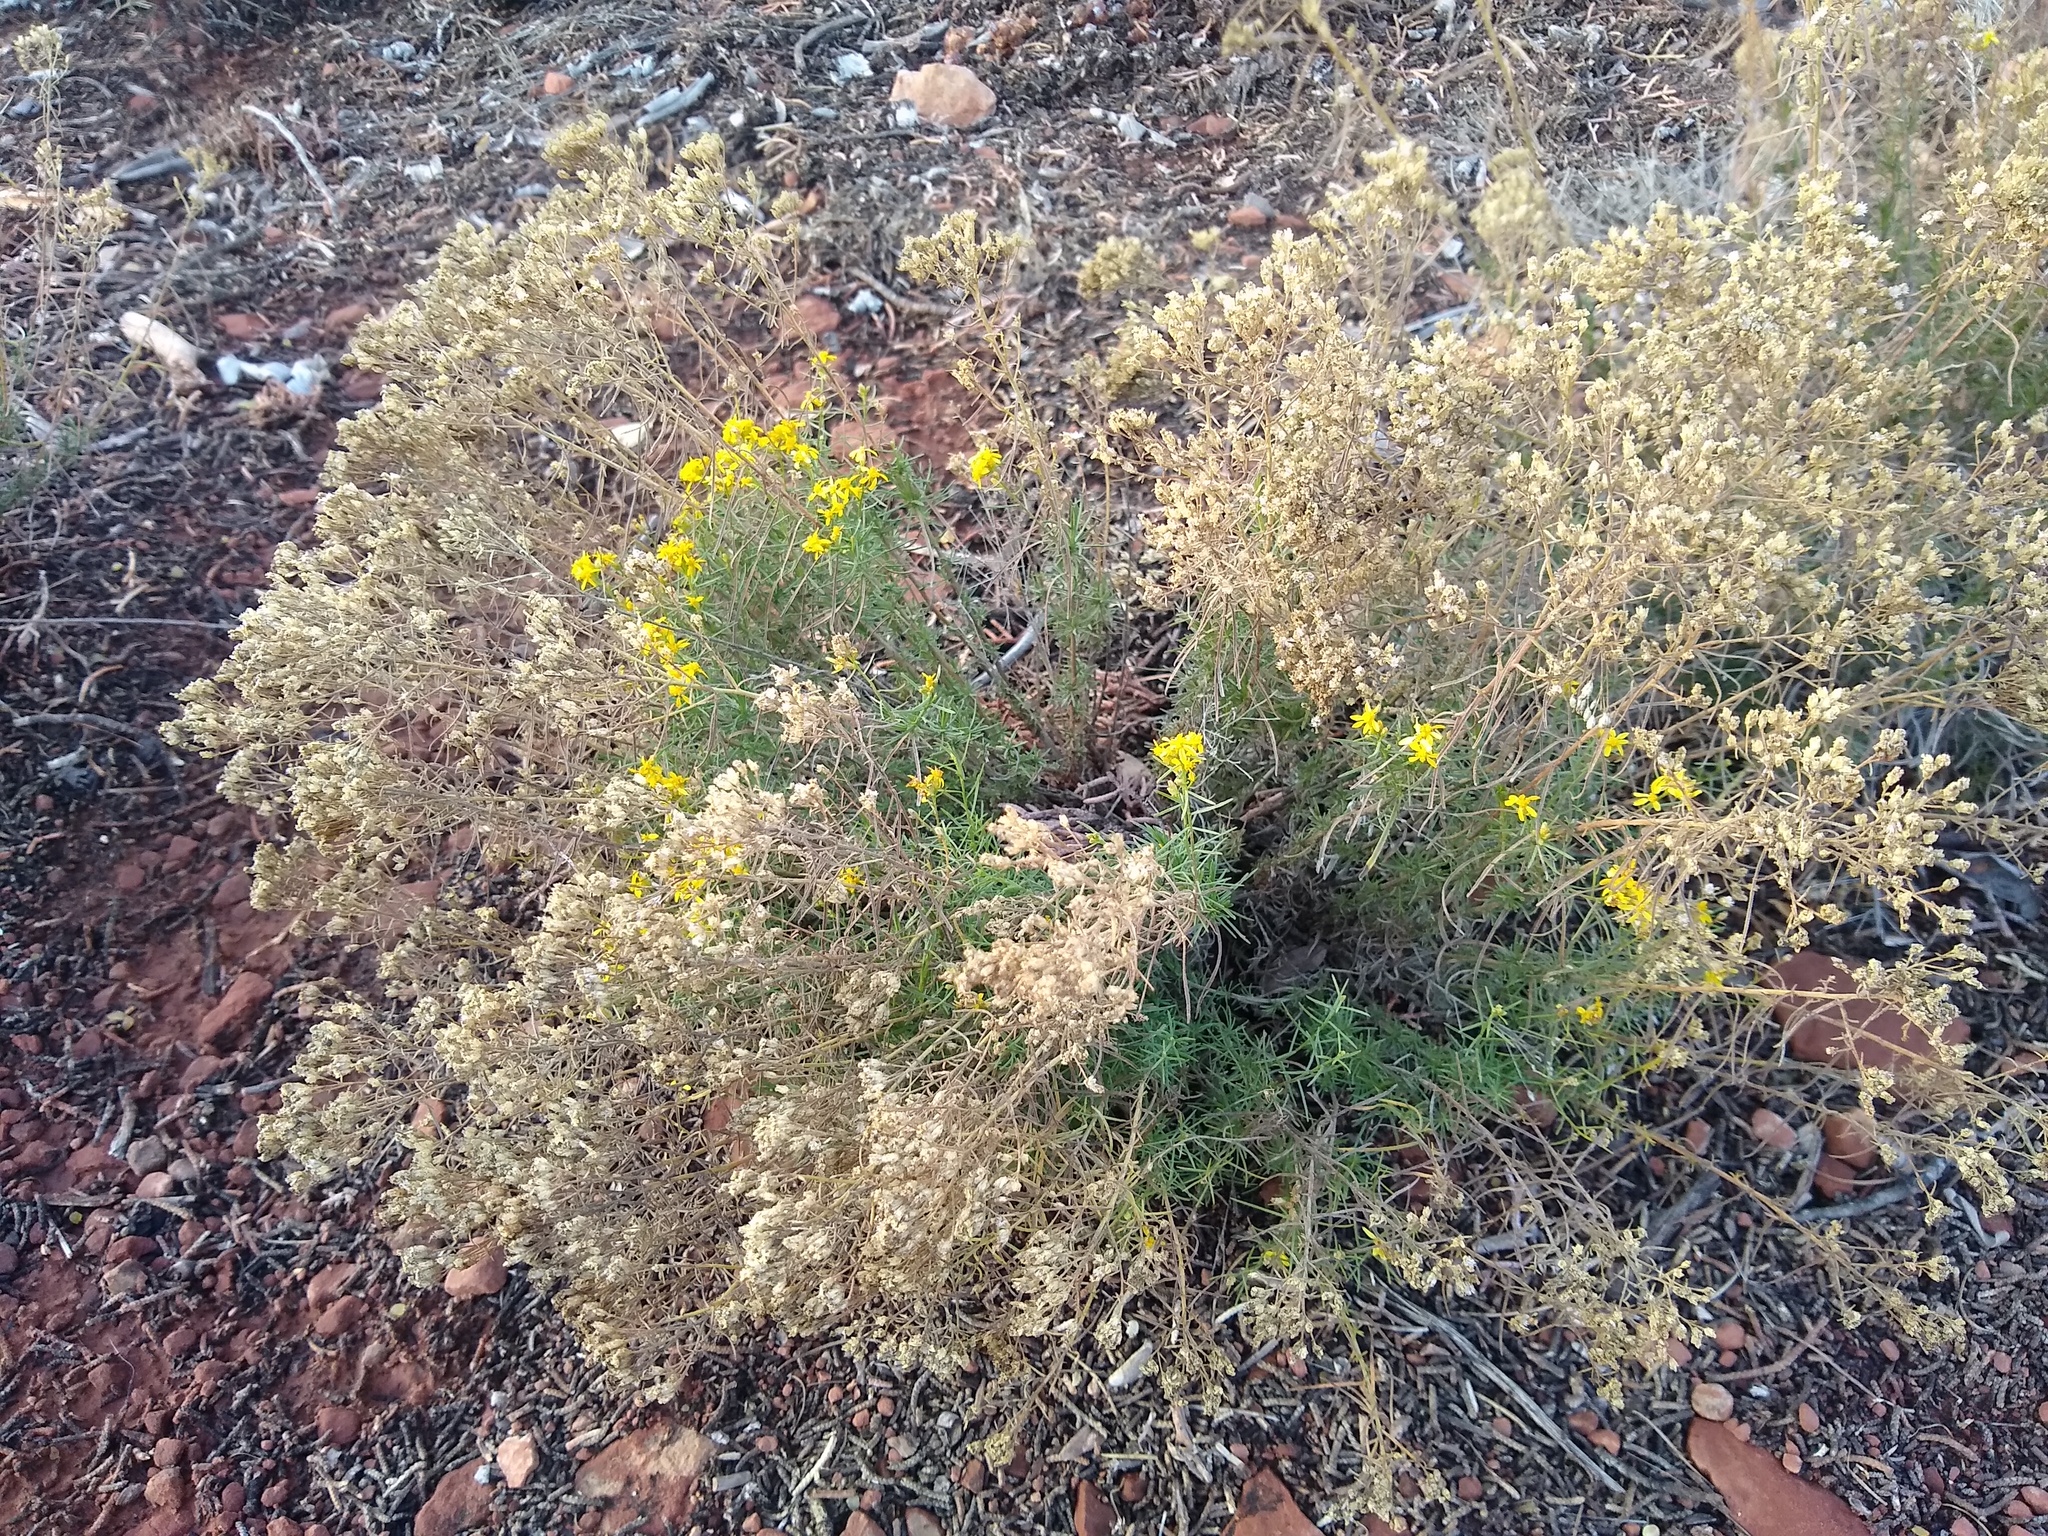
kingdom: Plantae
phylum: Tracheophyta
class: Magnoliopsida
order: Asterales
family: Asteraceae
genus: Gutierrezia
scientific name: Gutierrezia sarothrae
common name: Broom snakeweed
